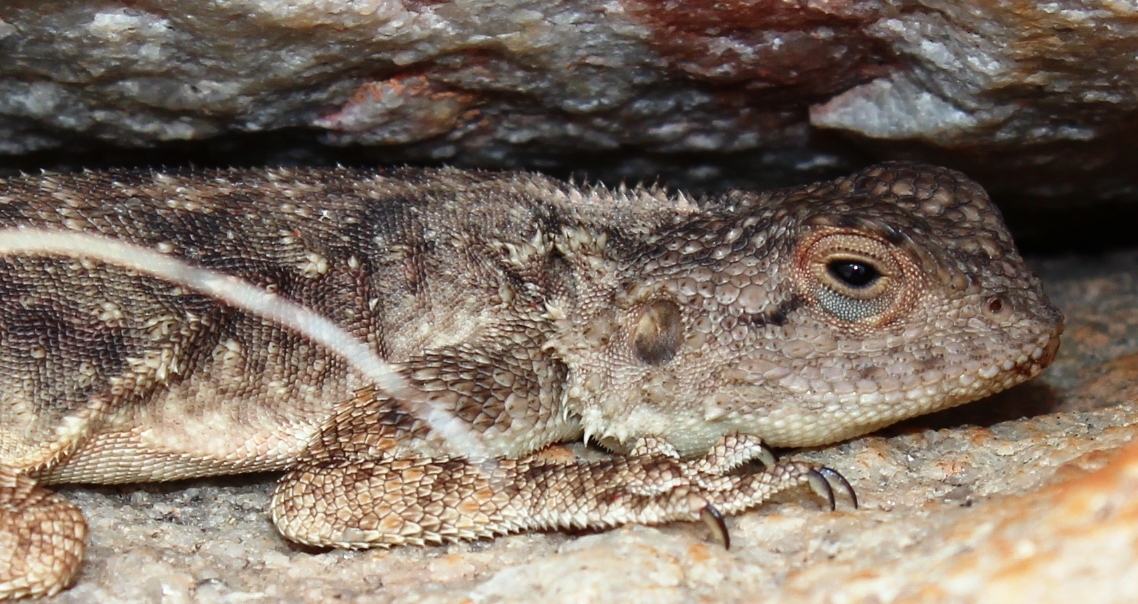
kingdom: Animalia
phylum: Chordata
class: Squamata
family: Agamidae
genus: Agama
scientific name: Agama atra
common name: Southern african rock agama
